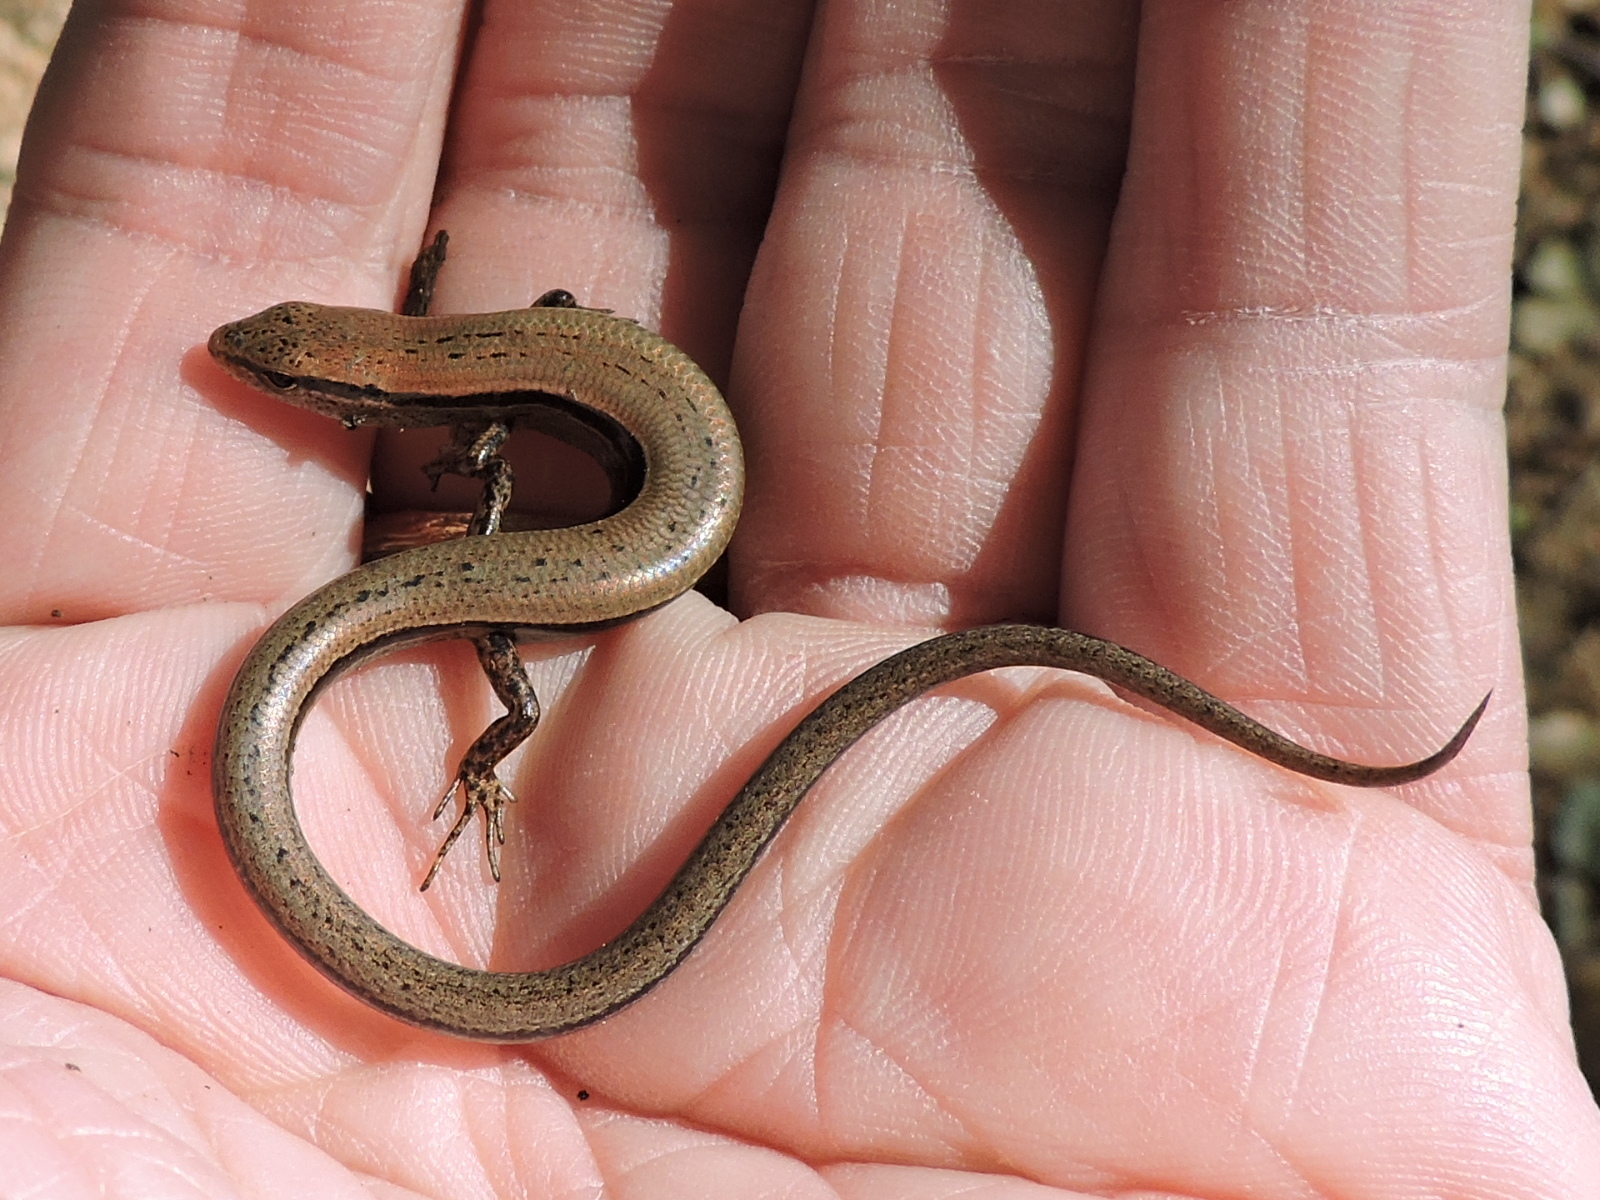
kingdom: Animalia
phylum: Chordata
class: Squamata
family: Scincidae
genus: Scincella
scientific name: Scincella lateralis
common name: Ground skink
